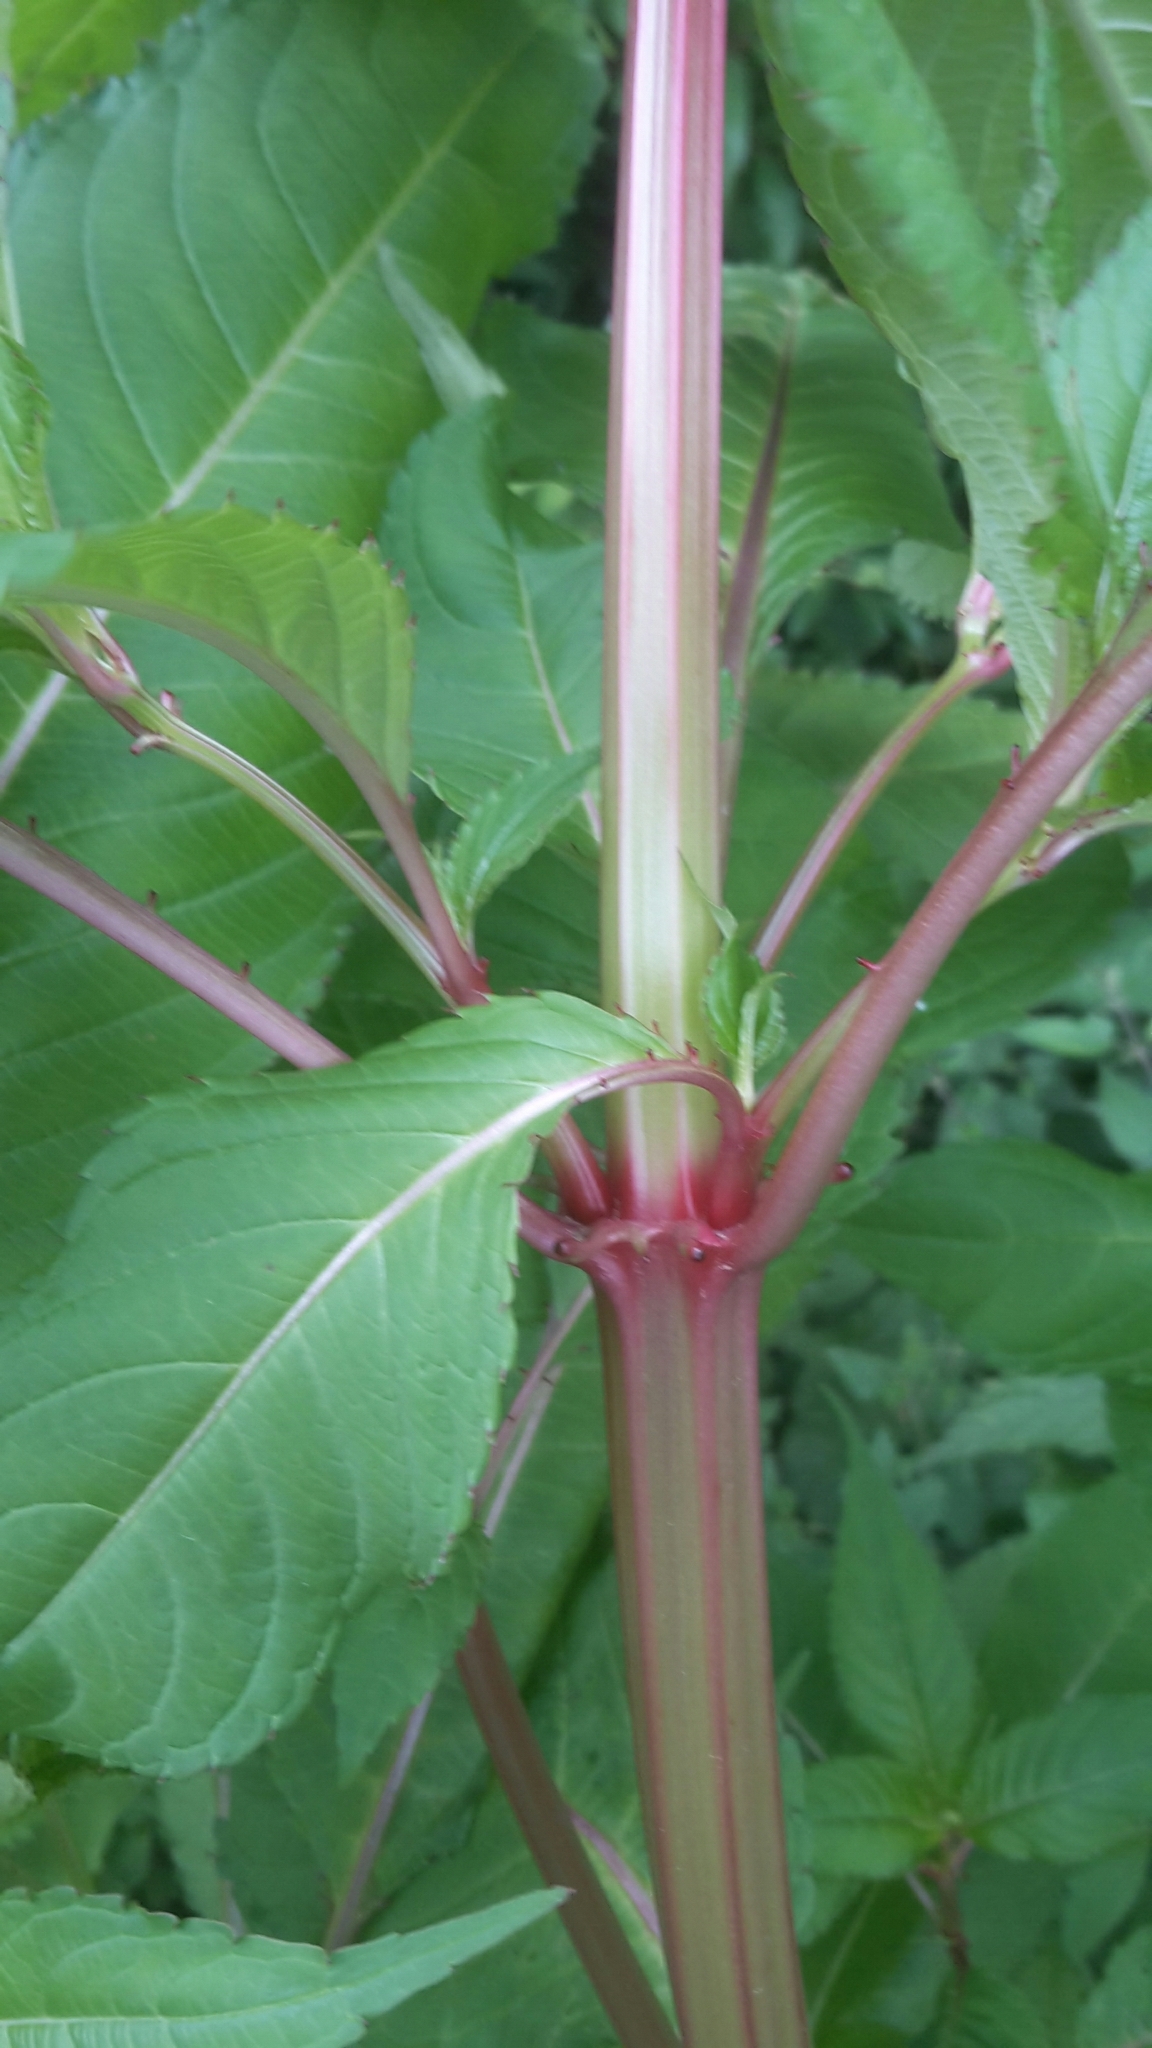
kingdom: Plantae
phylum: Tracheophyta
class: Magnoliopsida
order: Ericales
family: Balsaminaceae
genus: Impatiens
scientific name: Impatiens glandulifera
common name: Himalayan balsam
